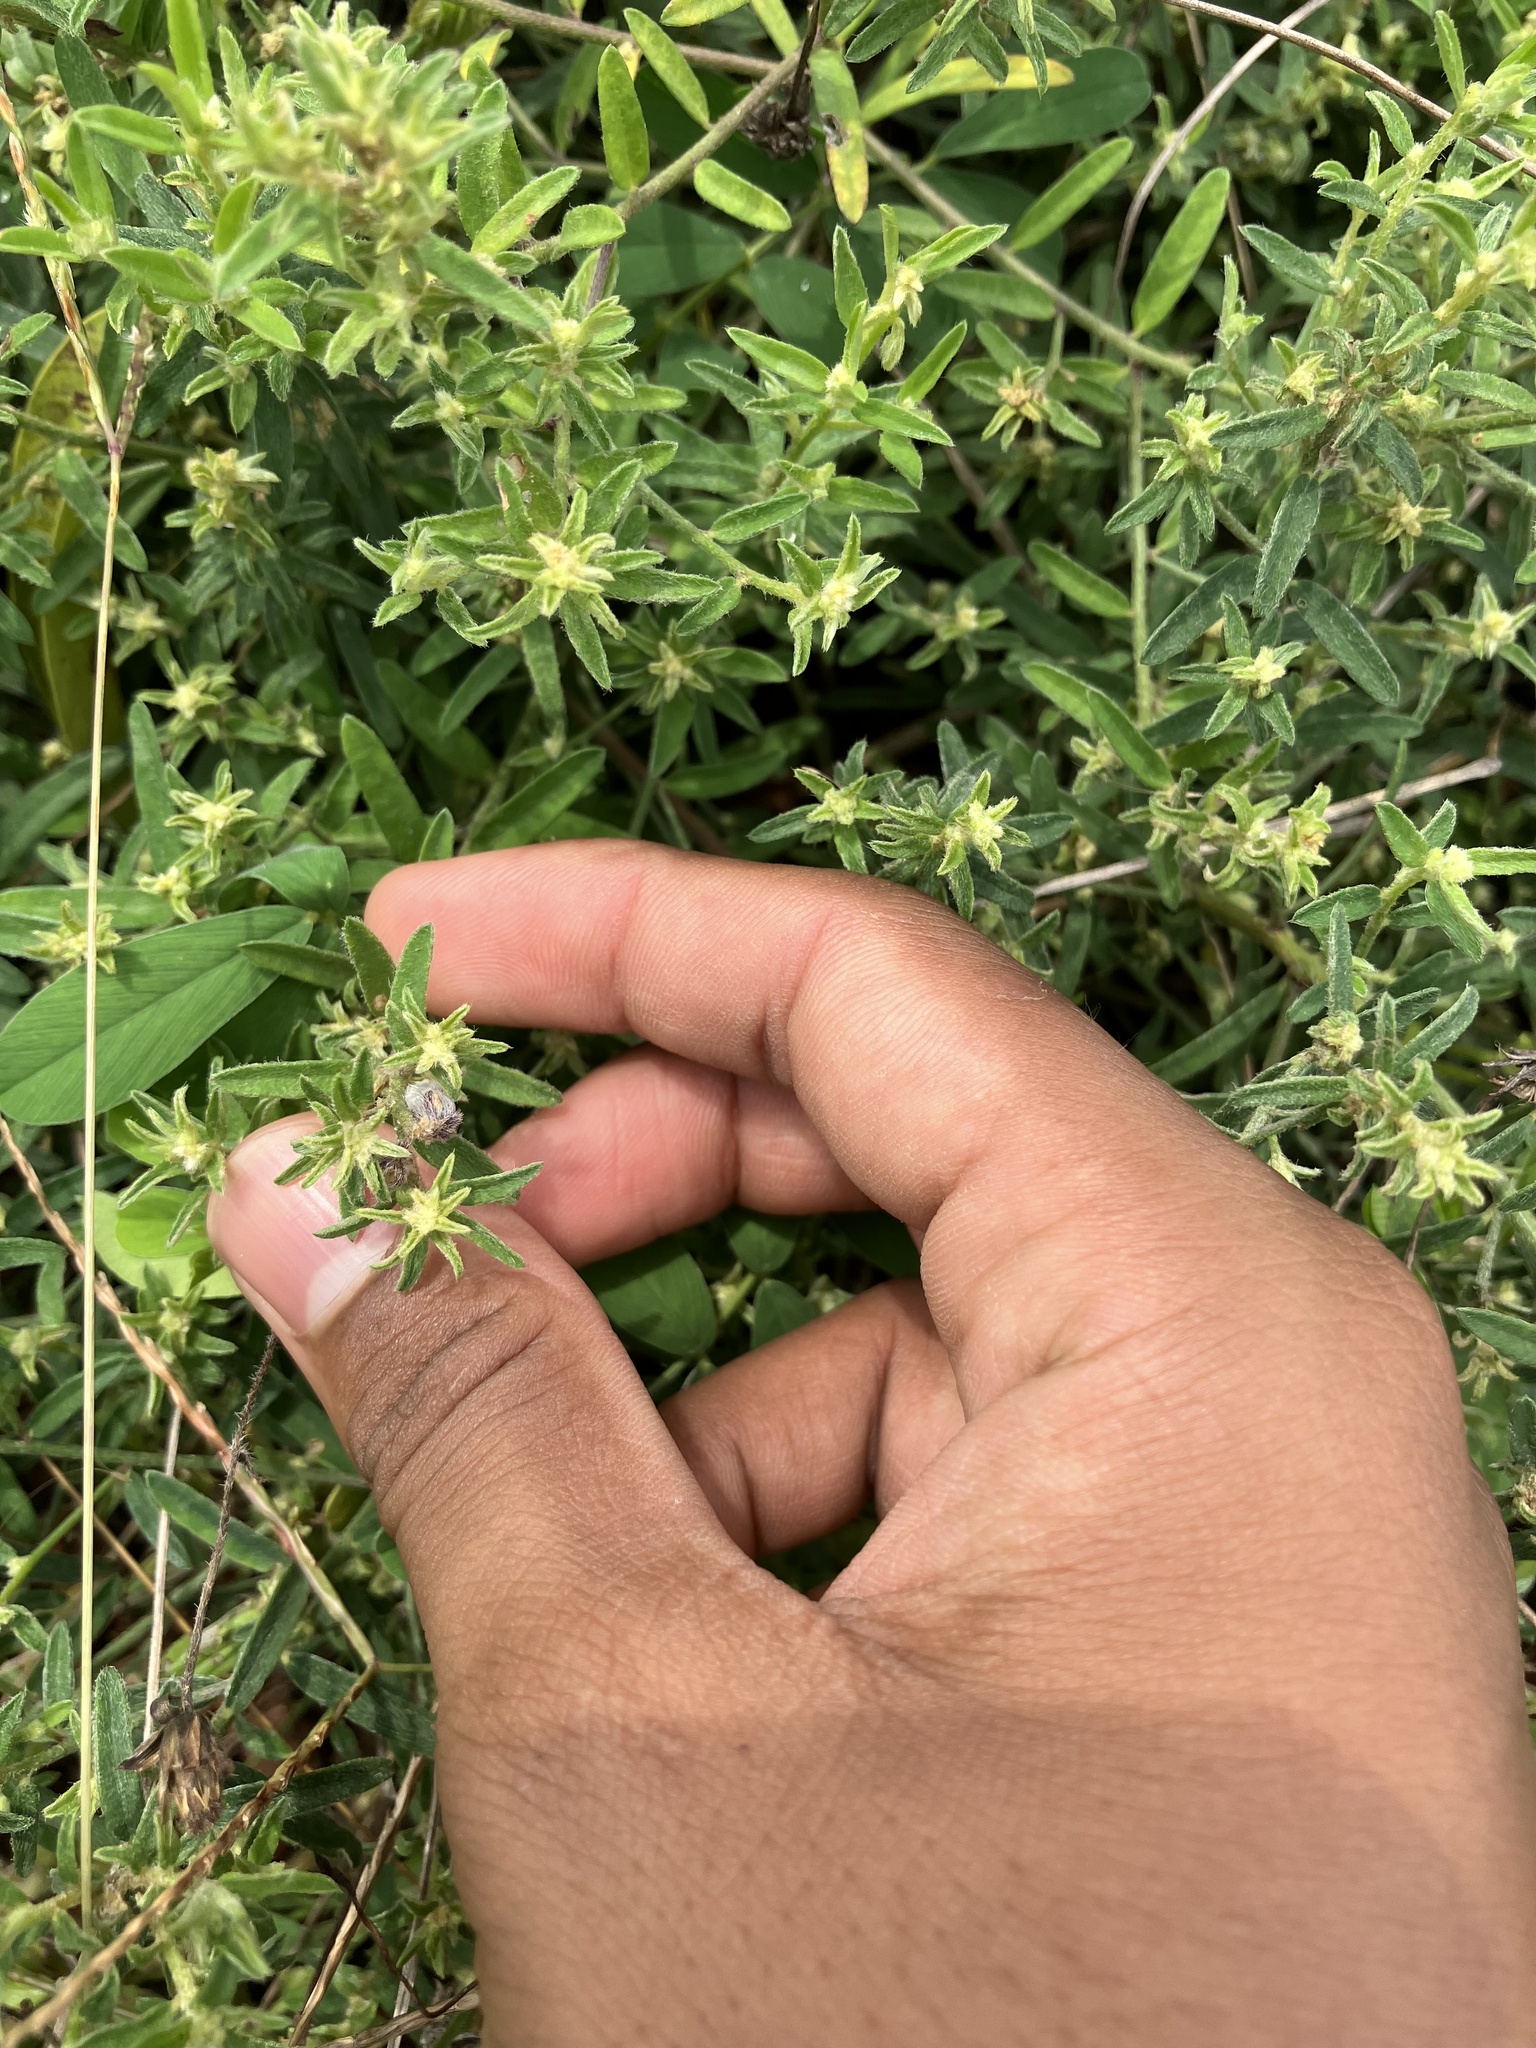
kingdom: Plantae
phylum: Tracheophyta
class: Magnoliopsida
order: Fabales
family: Fabaceae
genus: Crotalaria
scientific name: Crotalaria pusilla
